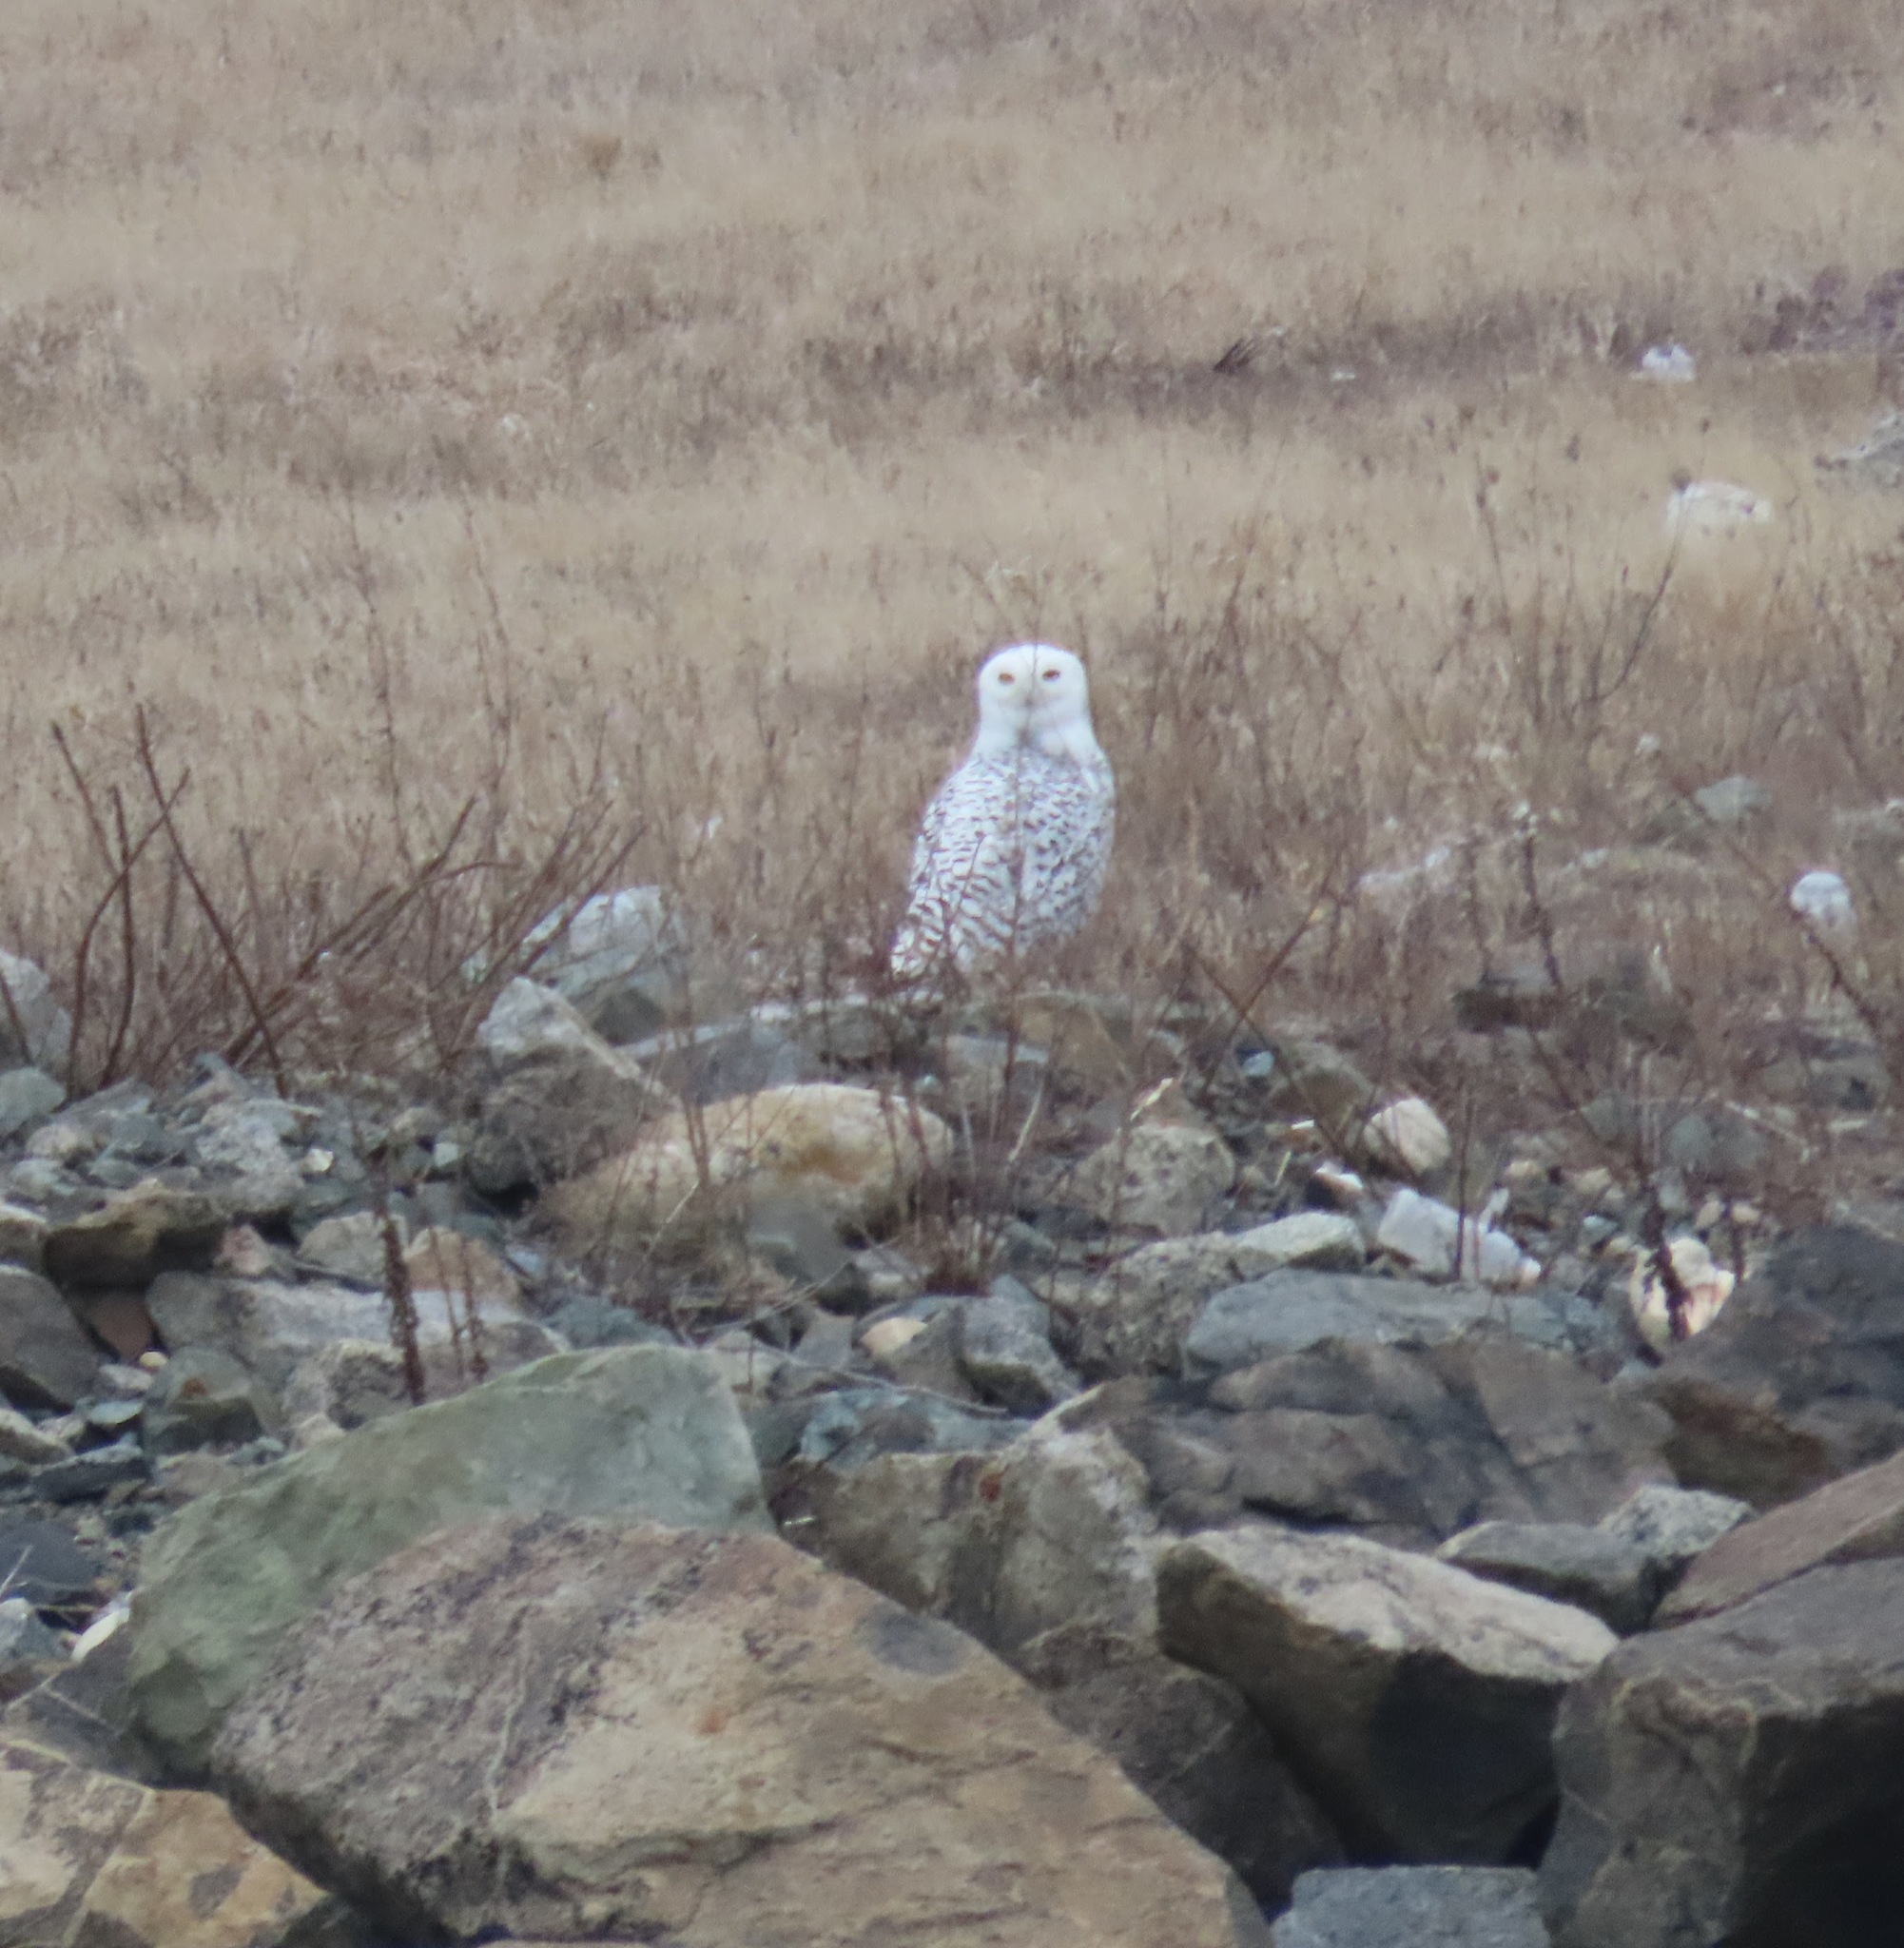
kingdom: Animalia
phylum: Chordata
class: Aves
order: Strigiformes
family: Strigidae
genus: Bubo
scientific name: Bubo scandiacus
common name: Snowy owl
